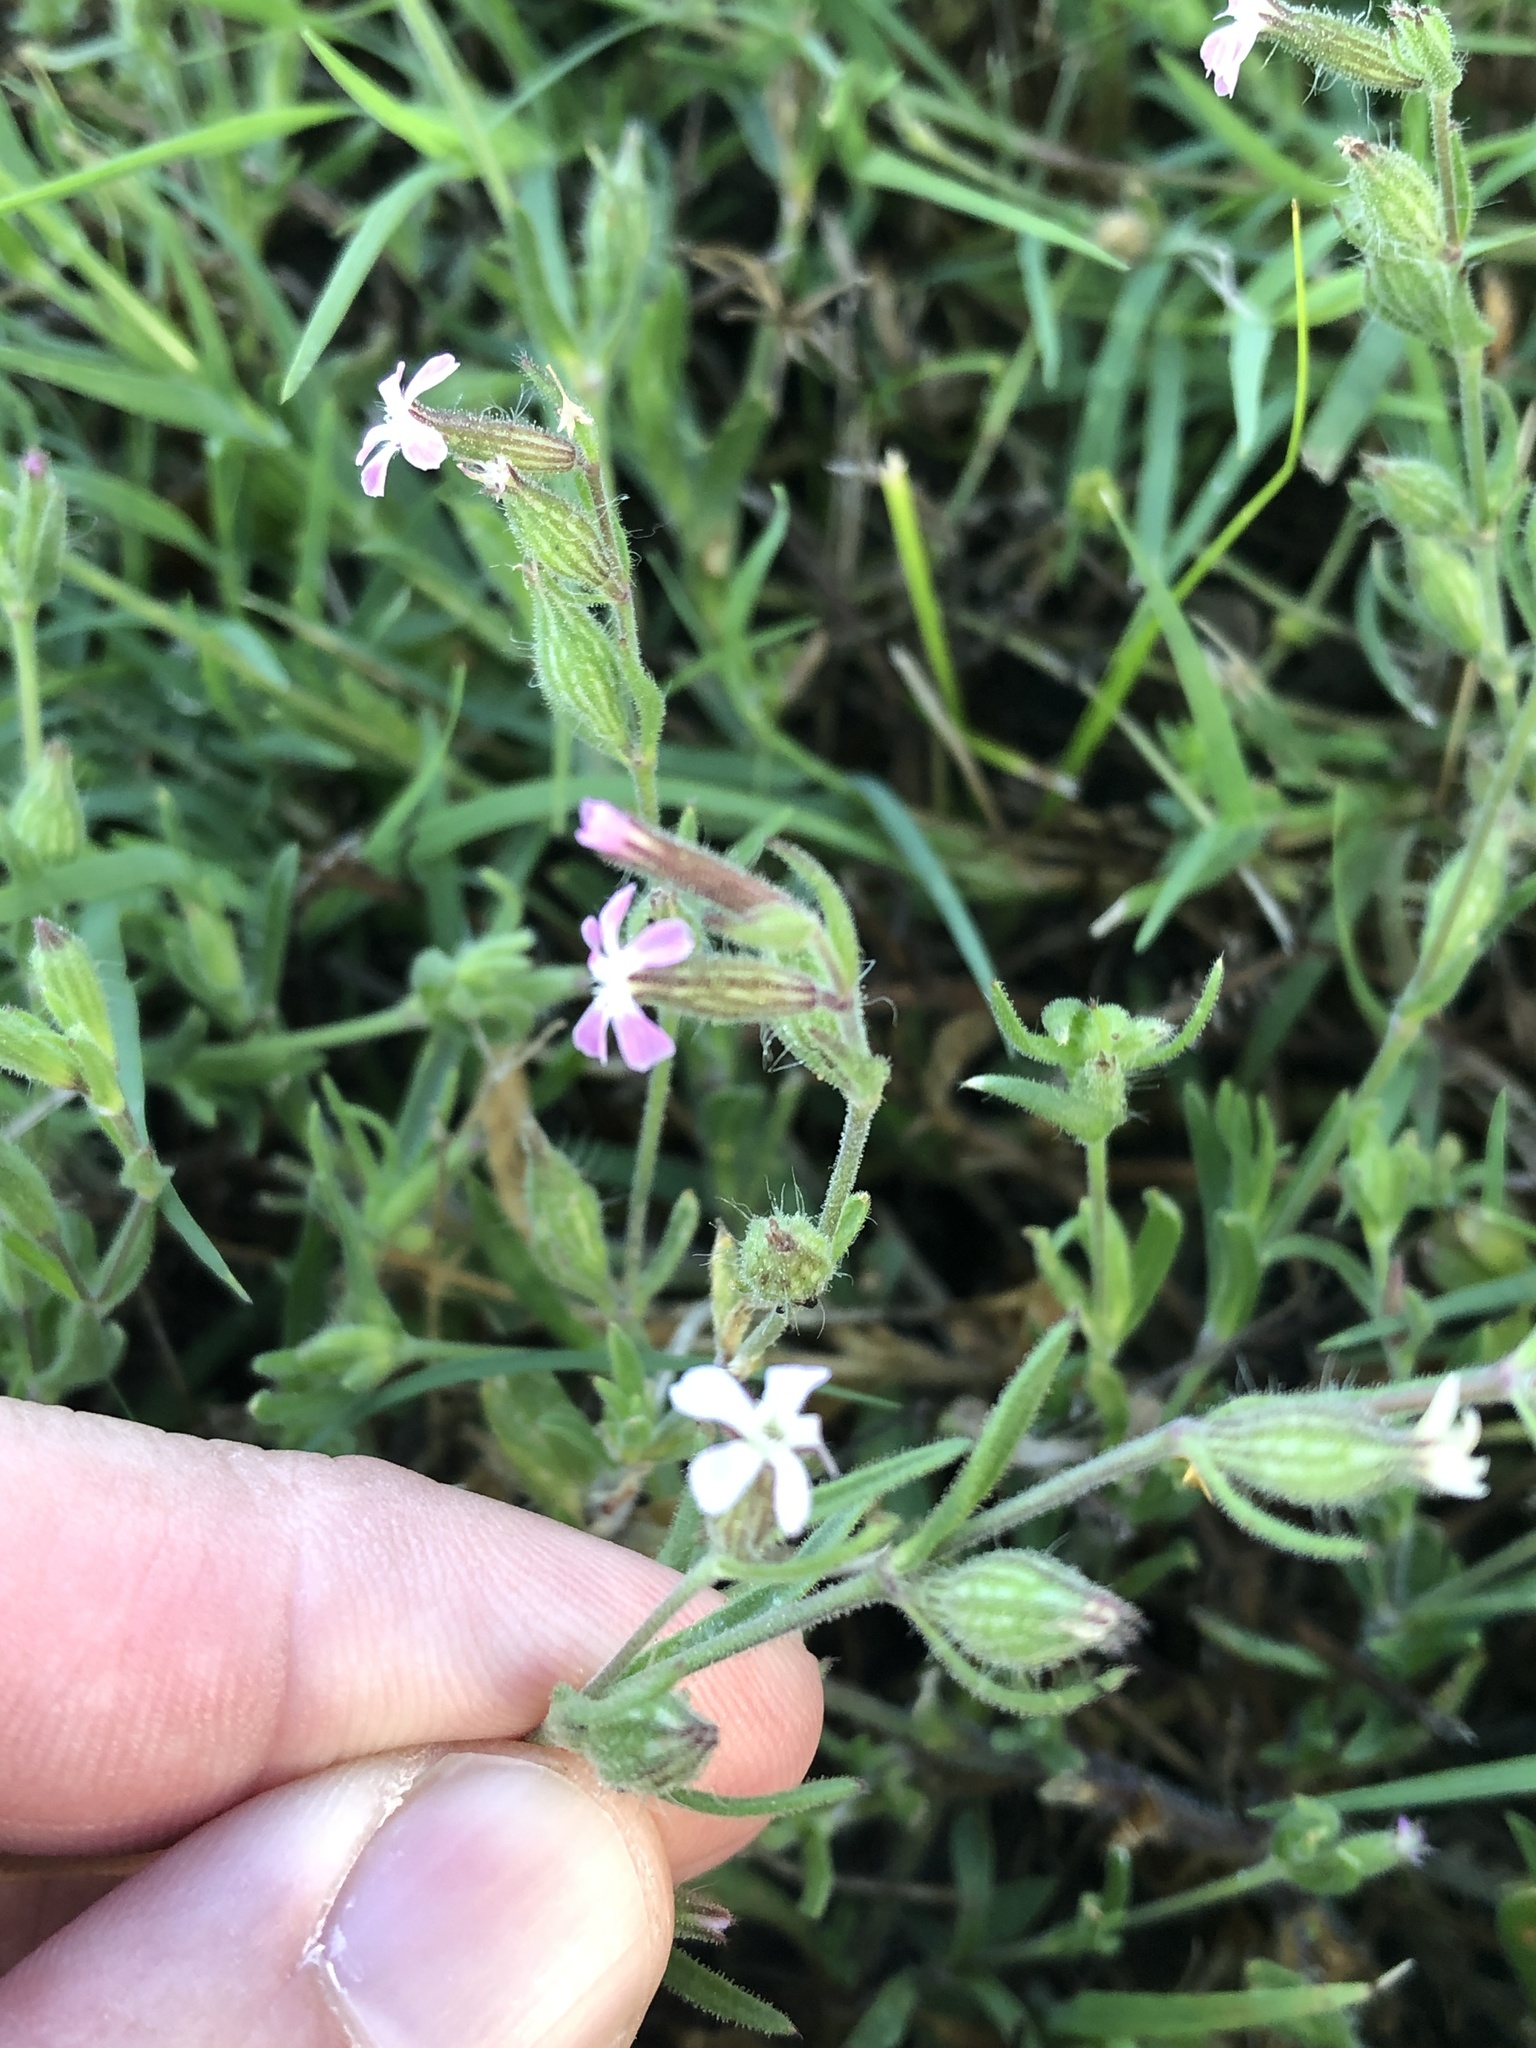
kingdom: Plantae
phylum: Tracheophyta
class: Magnoliopsida
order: Caryophyllales
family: Caryophyllaceae
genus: Silene
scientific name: Silene gallica
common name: Small-flowered catchfly
